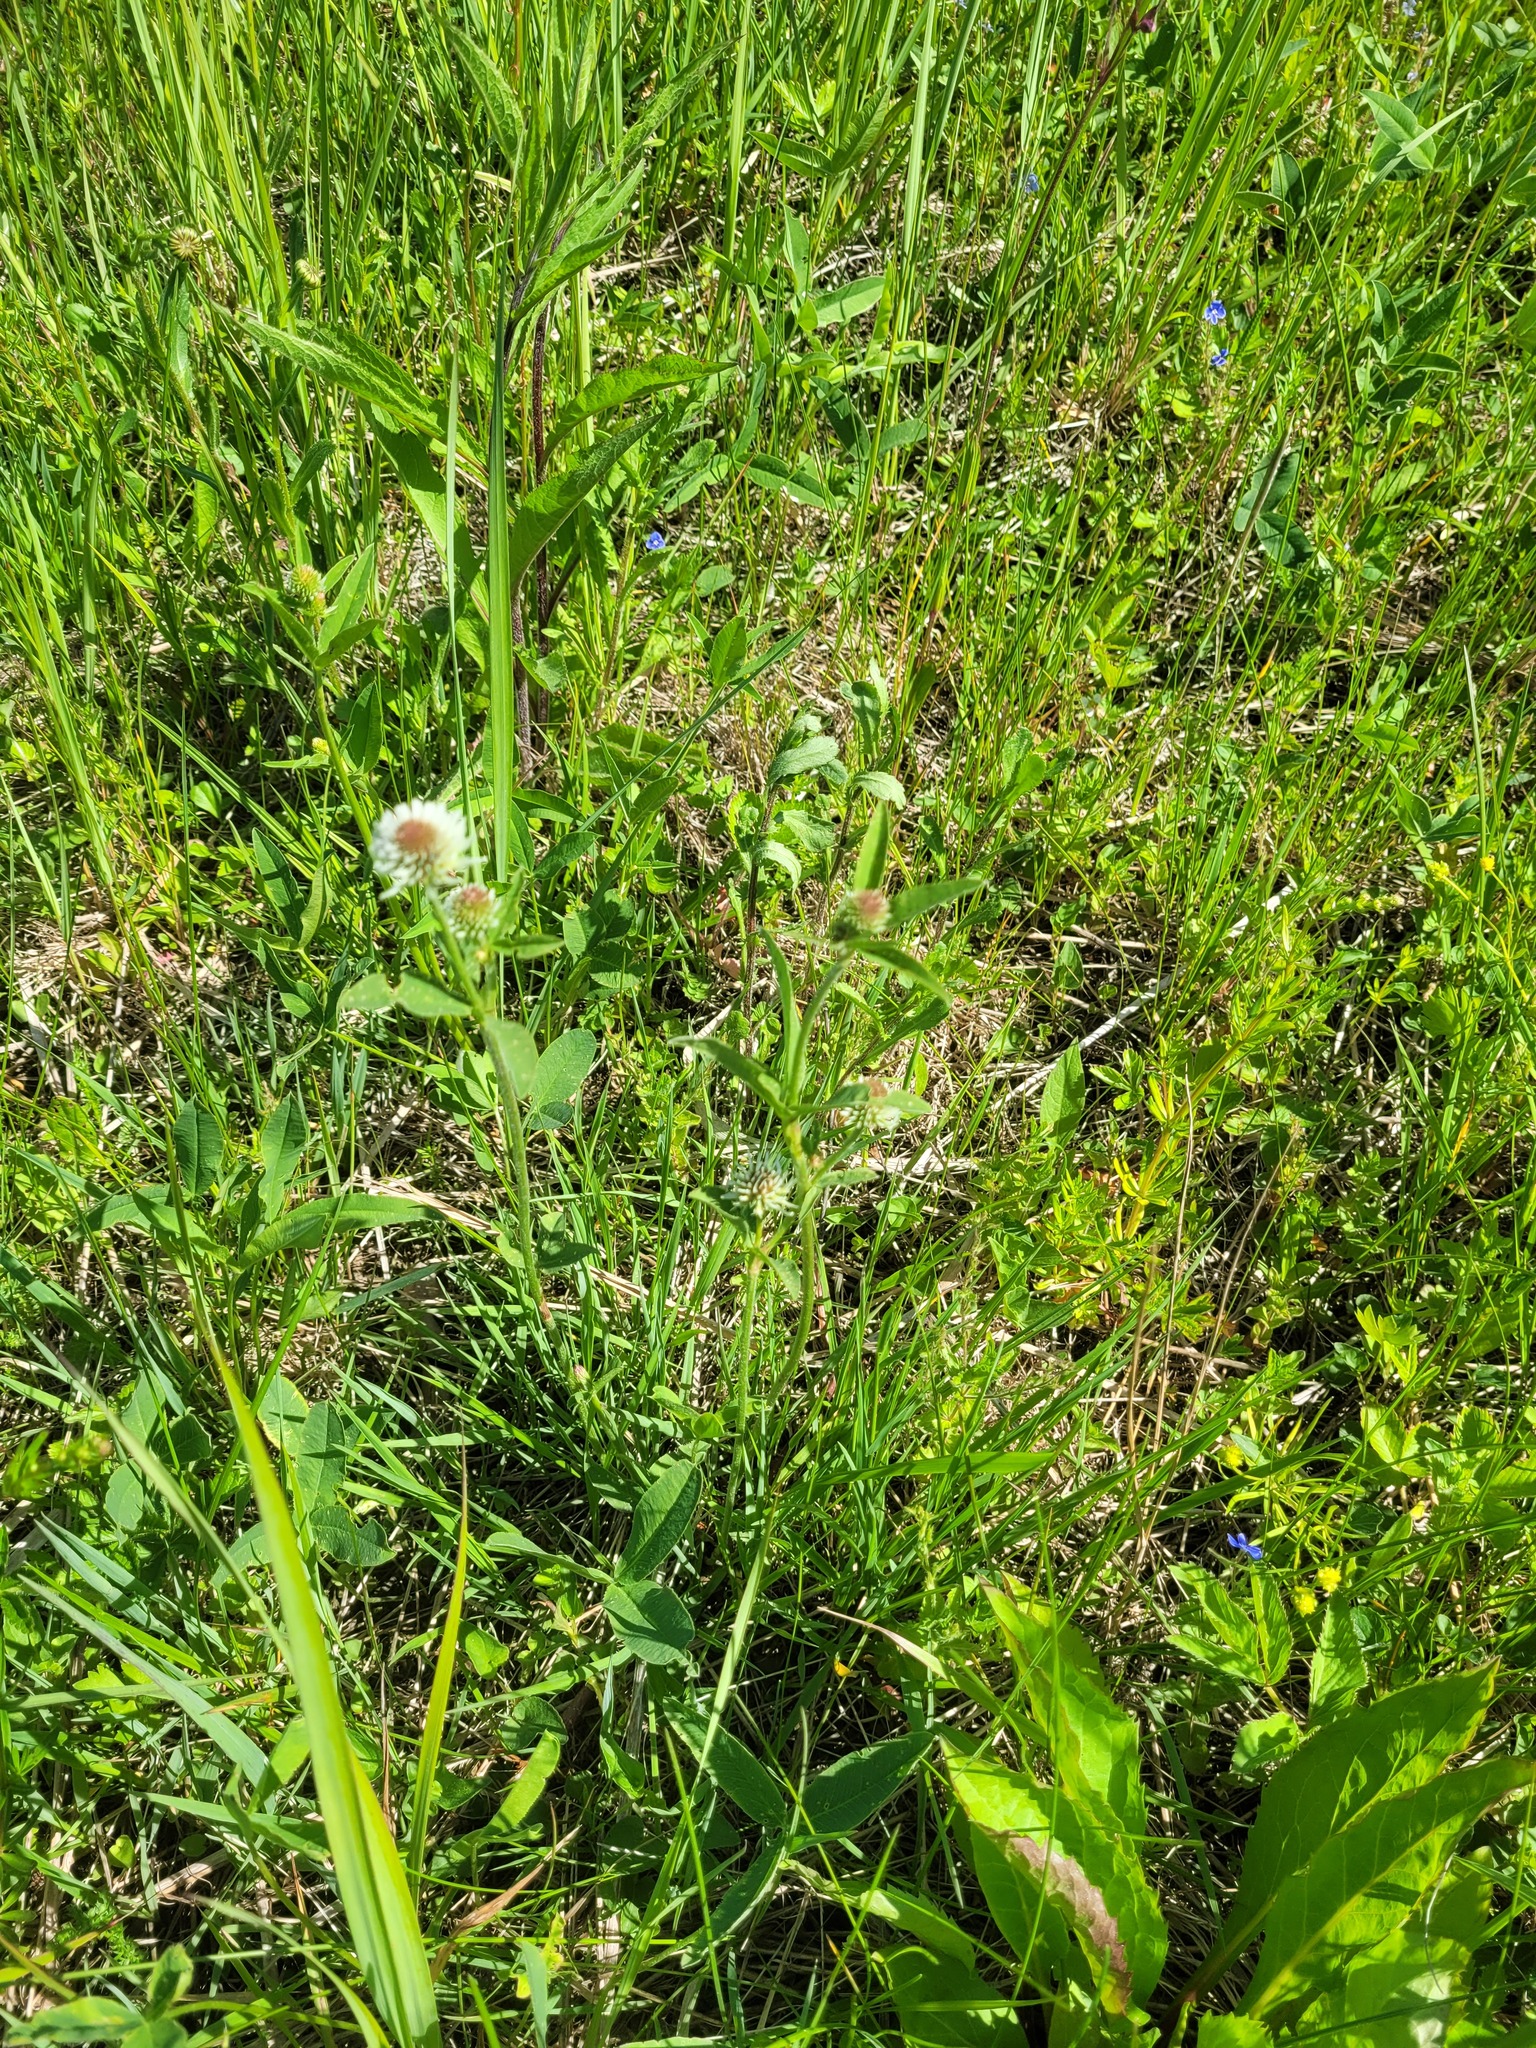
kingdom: Plantae
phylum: Tracheophyta
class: Magnoliopsida
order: Fabales
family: Fabaceae
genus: Trifolium
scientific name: Trifolium montanum
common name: Mountain clover
